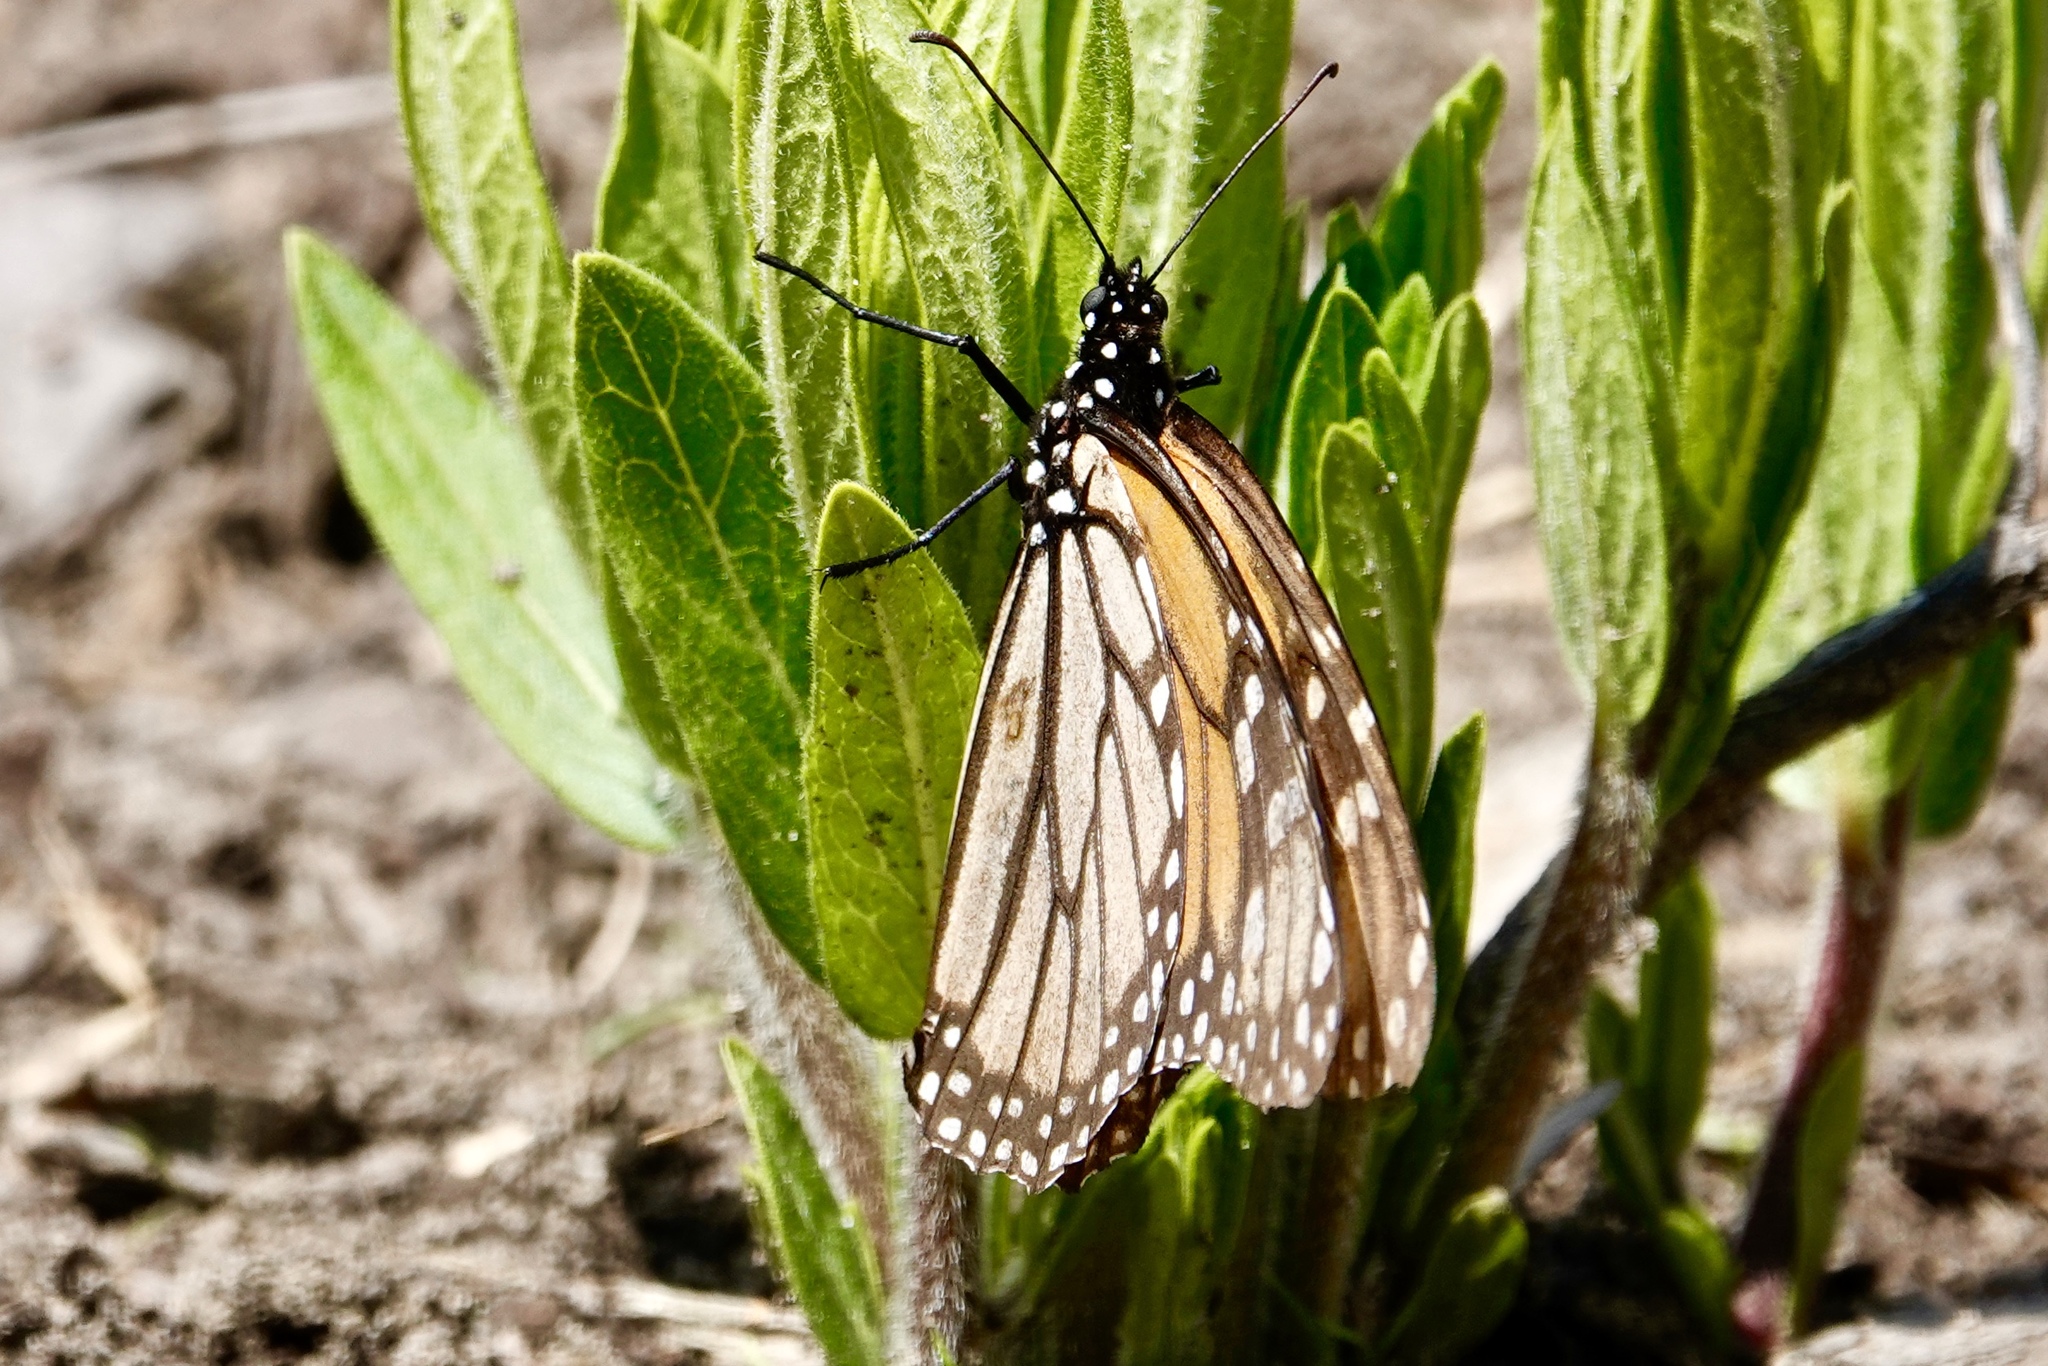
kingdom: Animalia
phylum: Arthropoda
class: Insecta
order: Lepidoptera
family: Nymphalidae
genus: Danaus
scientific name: Danaus plexippus
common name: Monarch
